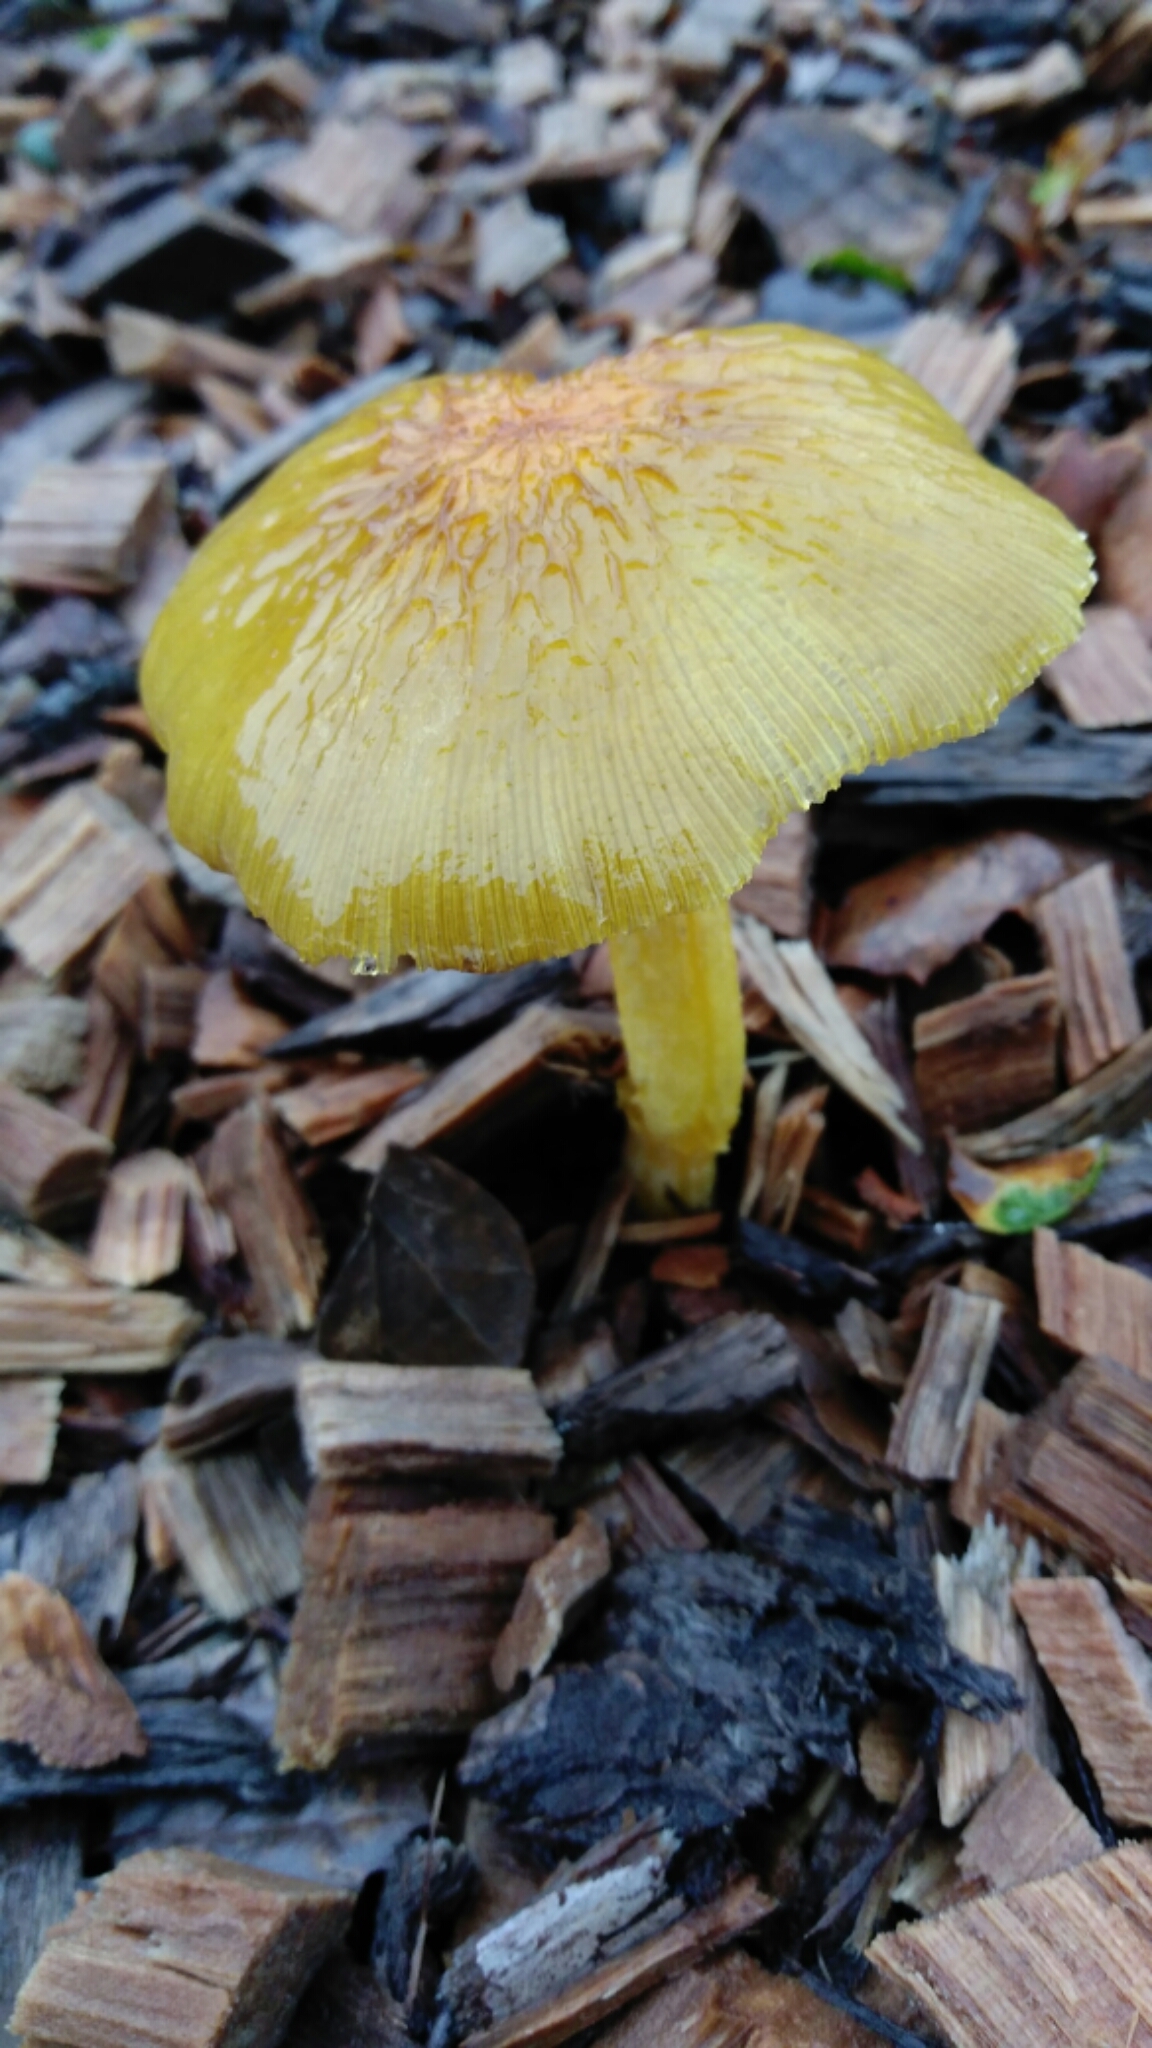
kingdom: Fungi
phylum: Basidiomycota
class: Agaricomycetes
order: Agaricales
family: Bolbitiaceae
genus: Bolbitius
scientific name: Bolbitius titubans
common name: Yellow fieldcap
